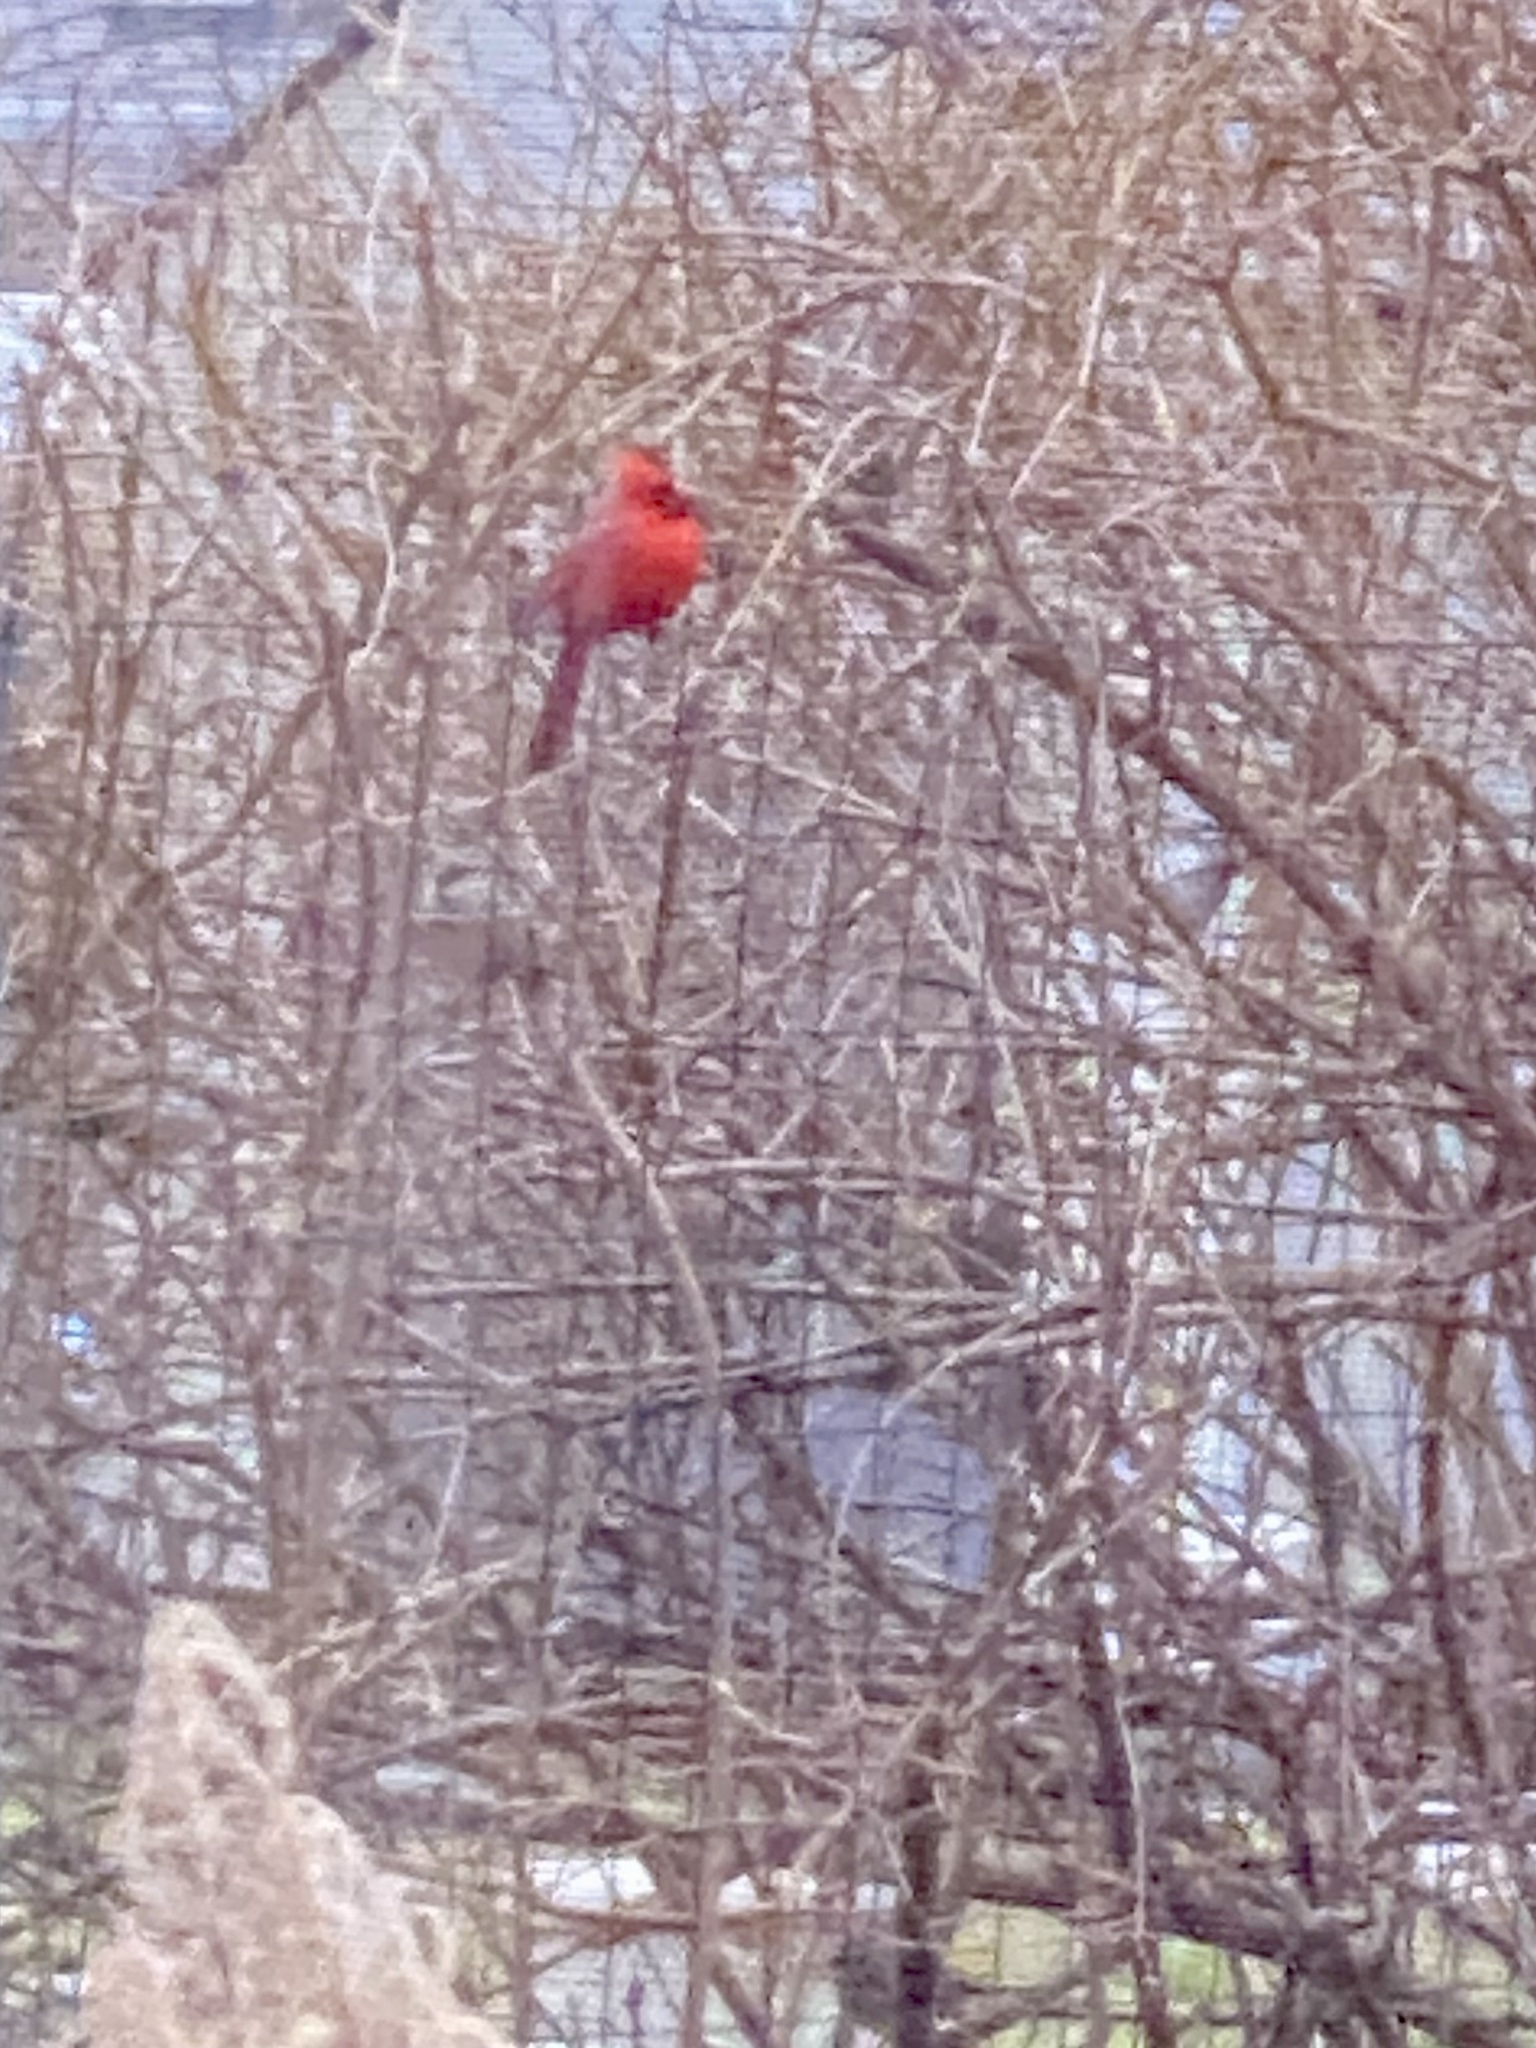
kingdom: Animalia
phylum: Chordata
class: Aves
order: Passeriformes
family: Cardinalidae
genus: Cardinalis
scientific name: Cardinalis cardinalis
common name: Northern cardinal
